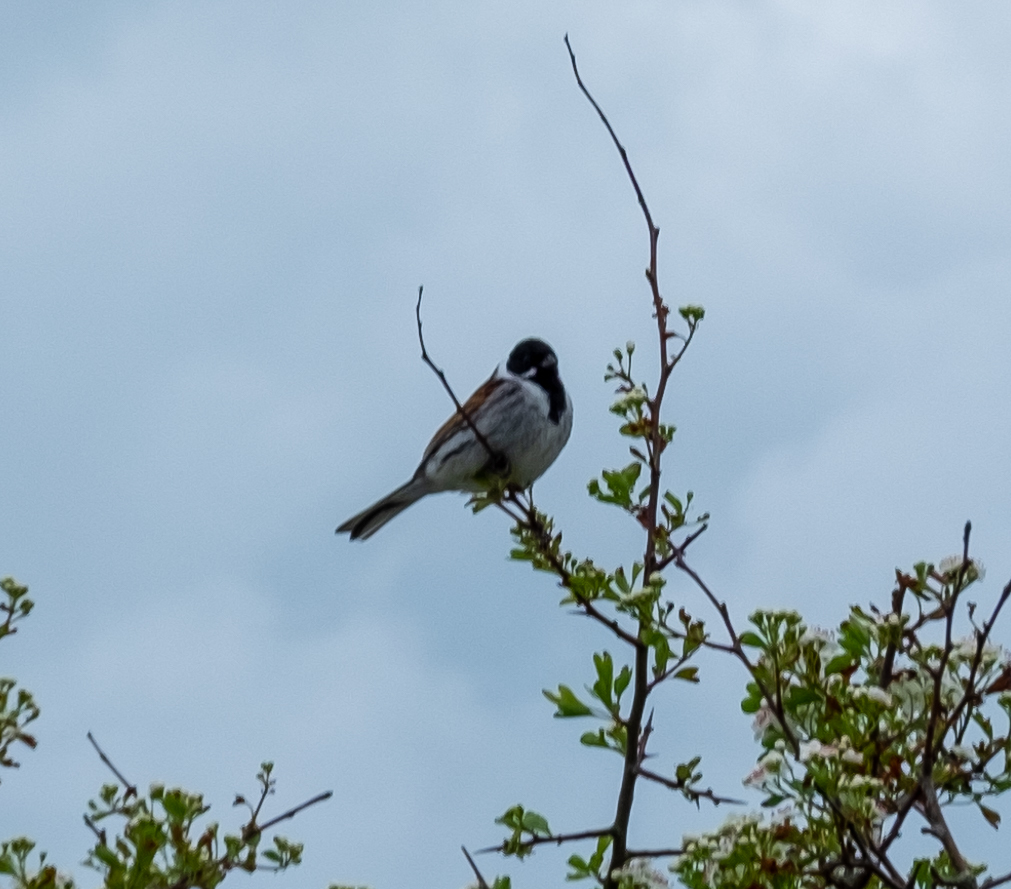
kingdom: Animalia
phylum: Chordata
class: Aves
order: Passeriformes
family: Emberizidae
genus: Emberiza
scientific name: Emberiza schoeniclus
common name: Reed bunting
